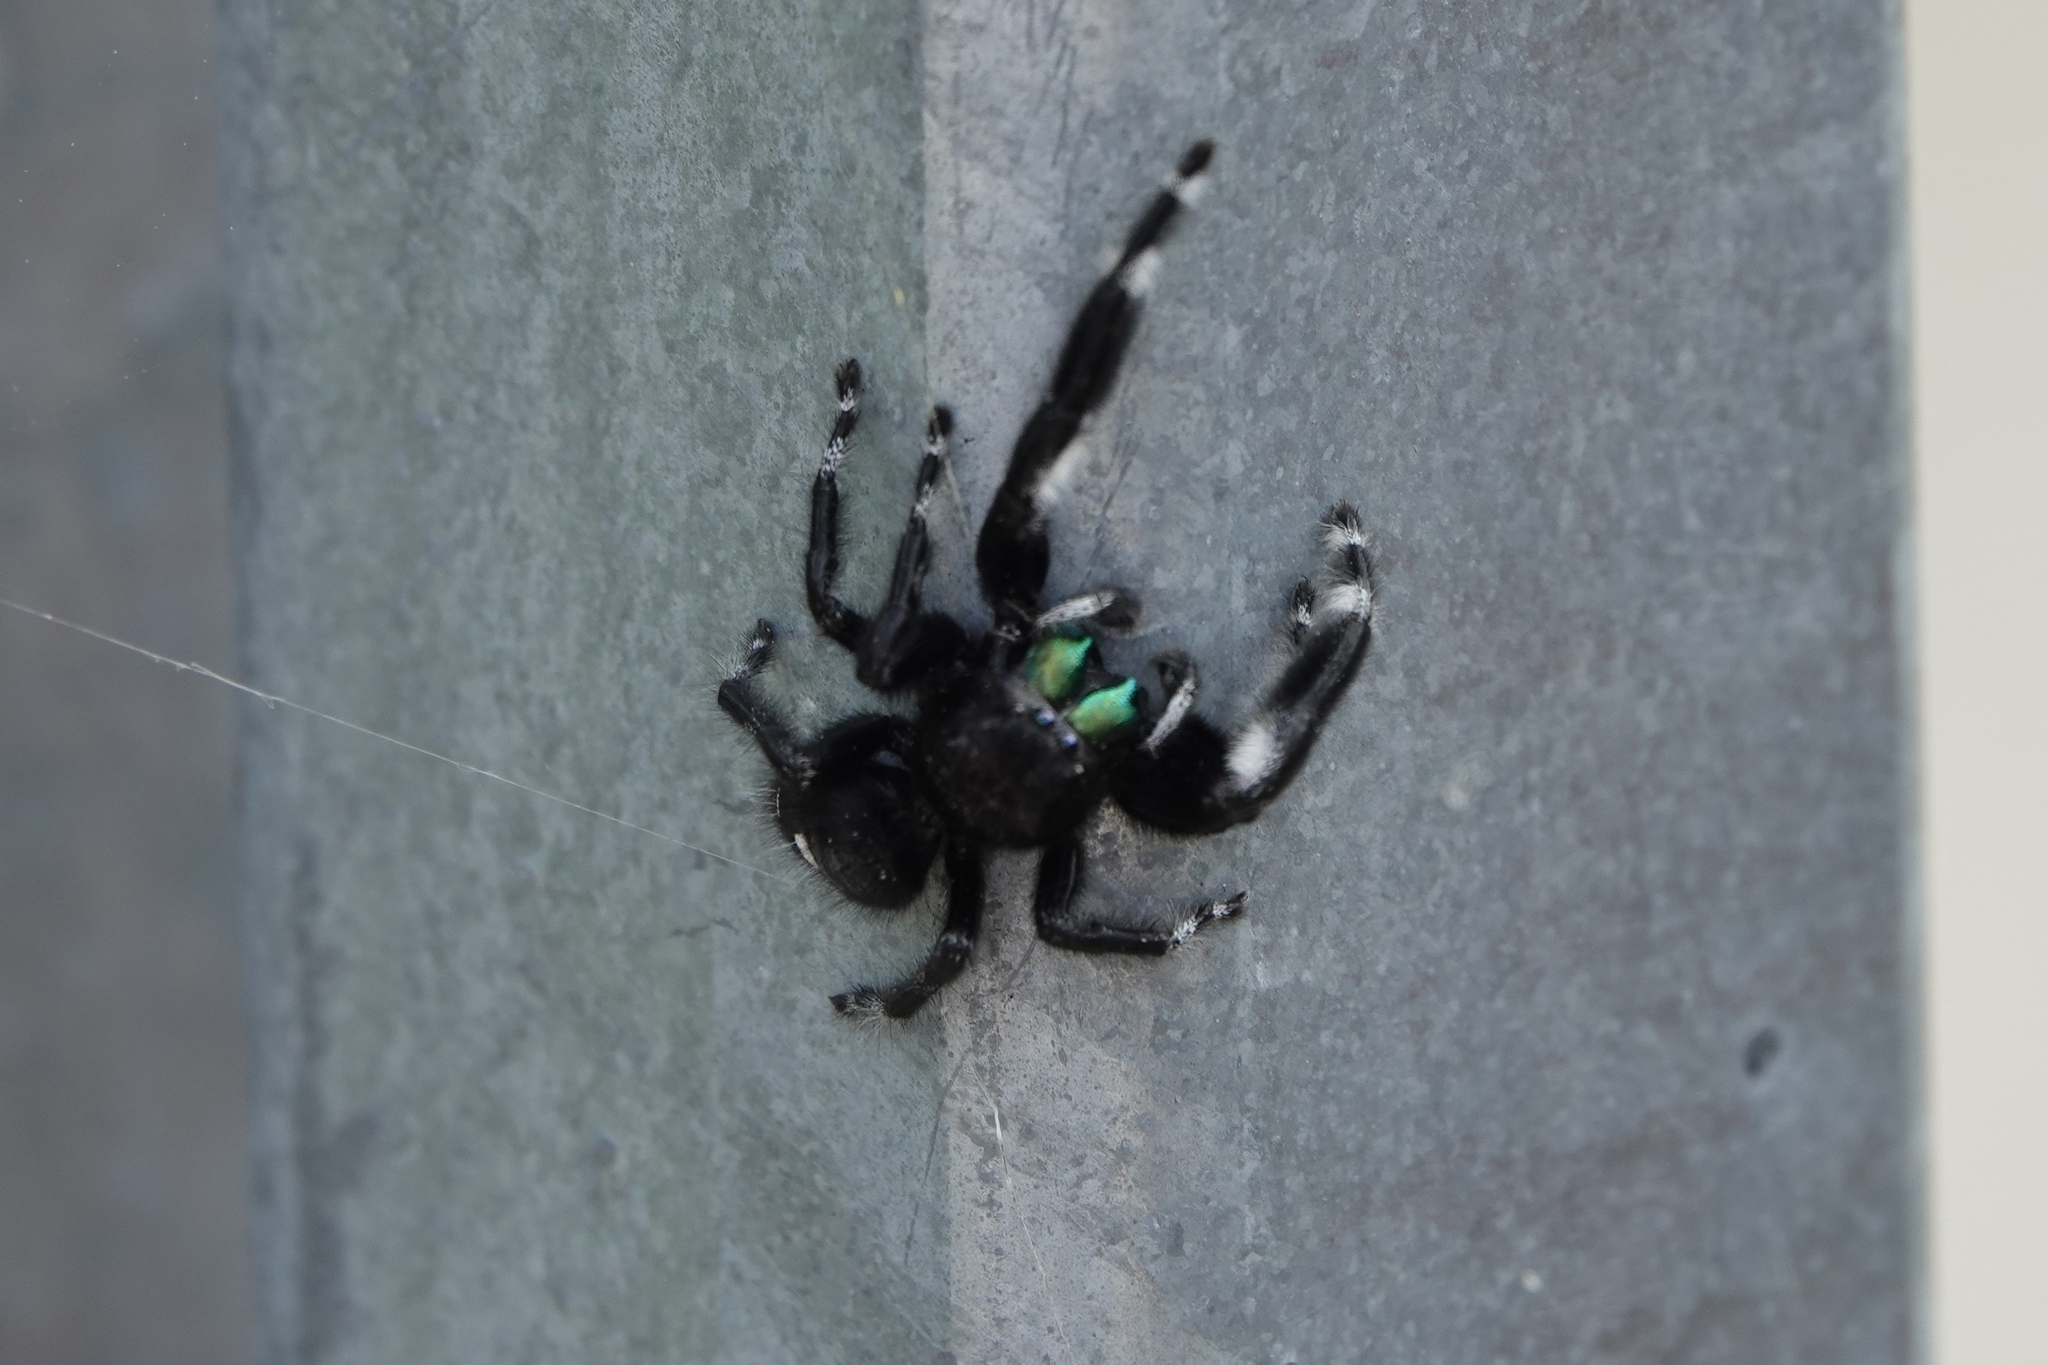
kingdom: Animalia
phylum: Arthropoda
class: Arachnida
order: Araneae
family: Salticidae
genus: Phidippus
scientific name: Phidippus audax
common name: Bold jumper
